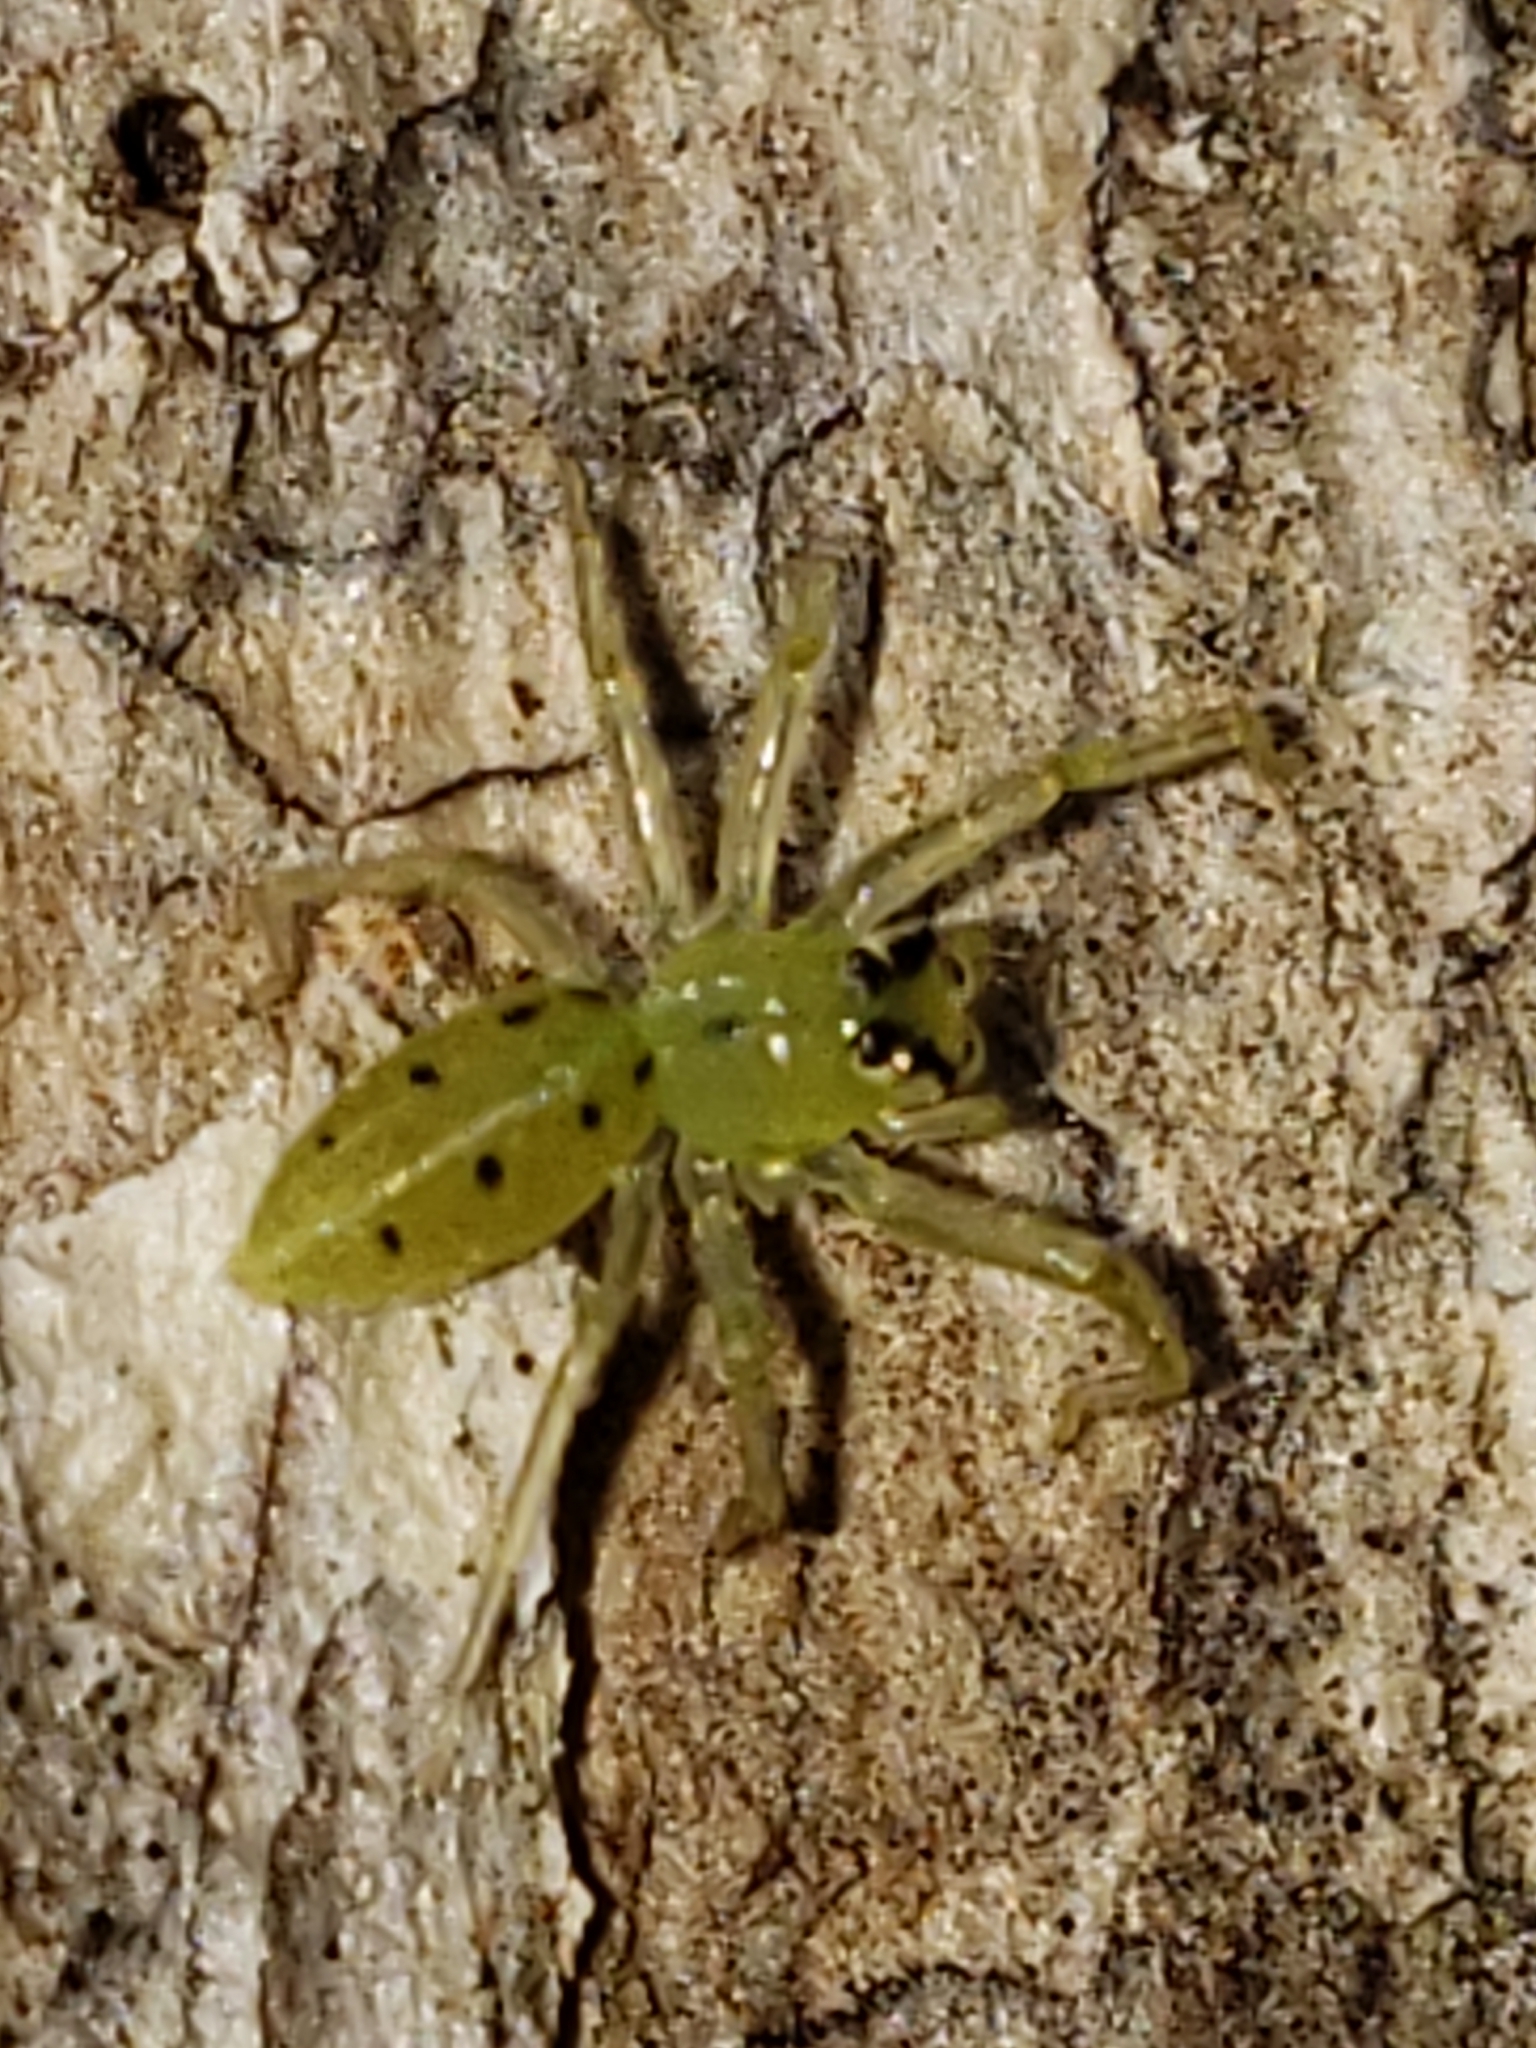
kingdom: Animalia
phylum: Arthropoda
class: Arachnida
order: Araneae
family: Salticidae
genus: Lyssomanes
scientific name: Lyssomanes viridis
